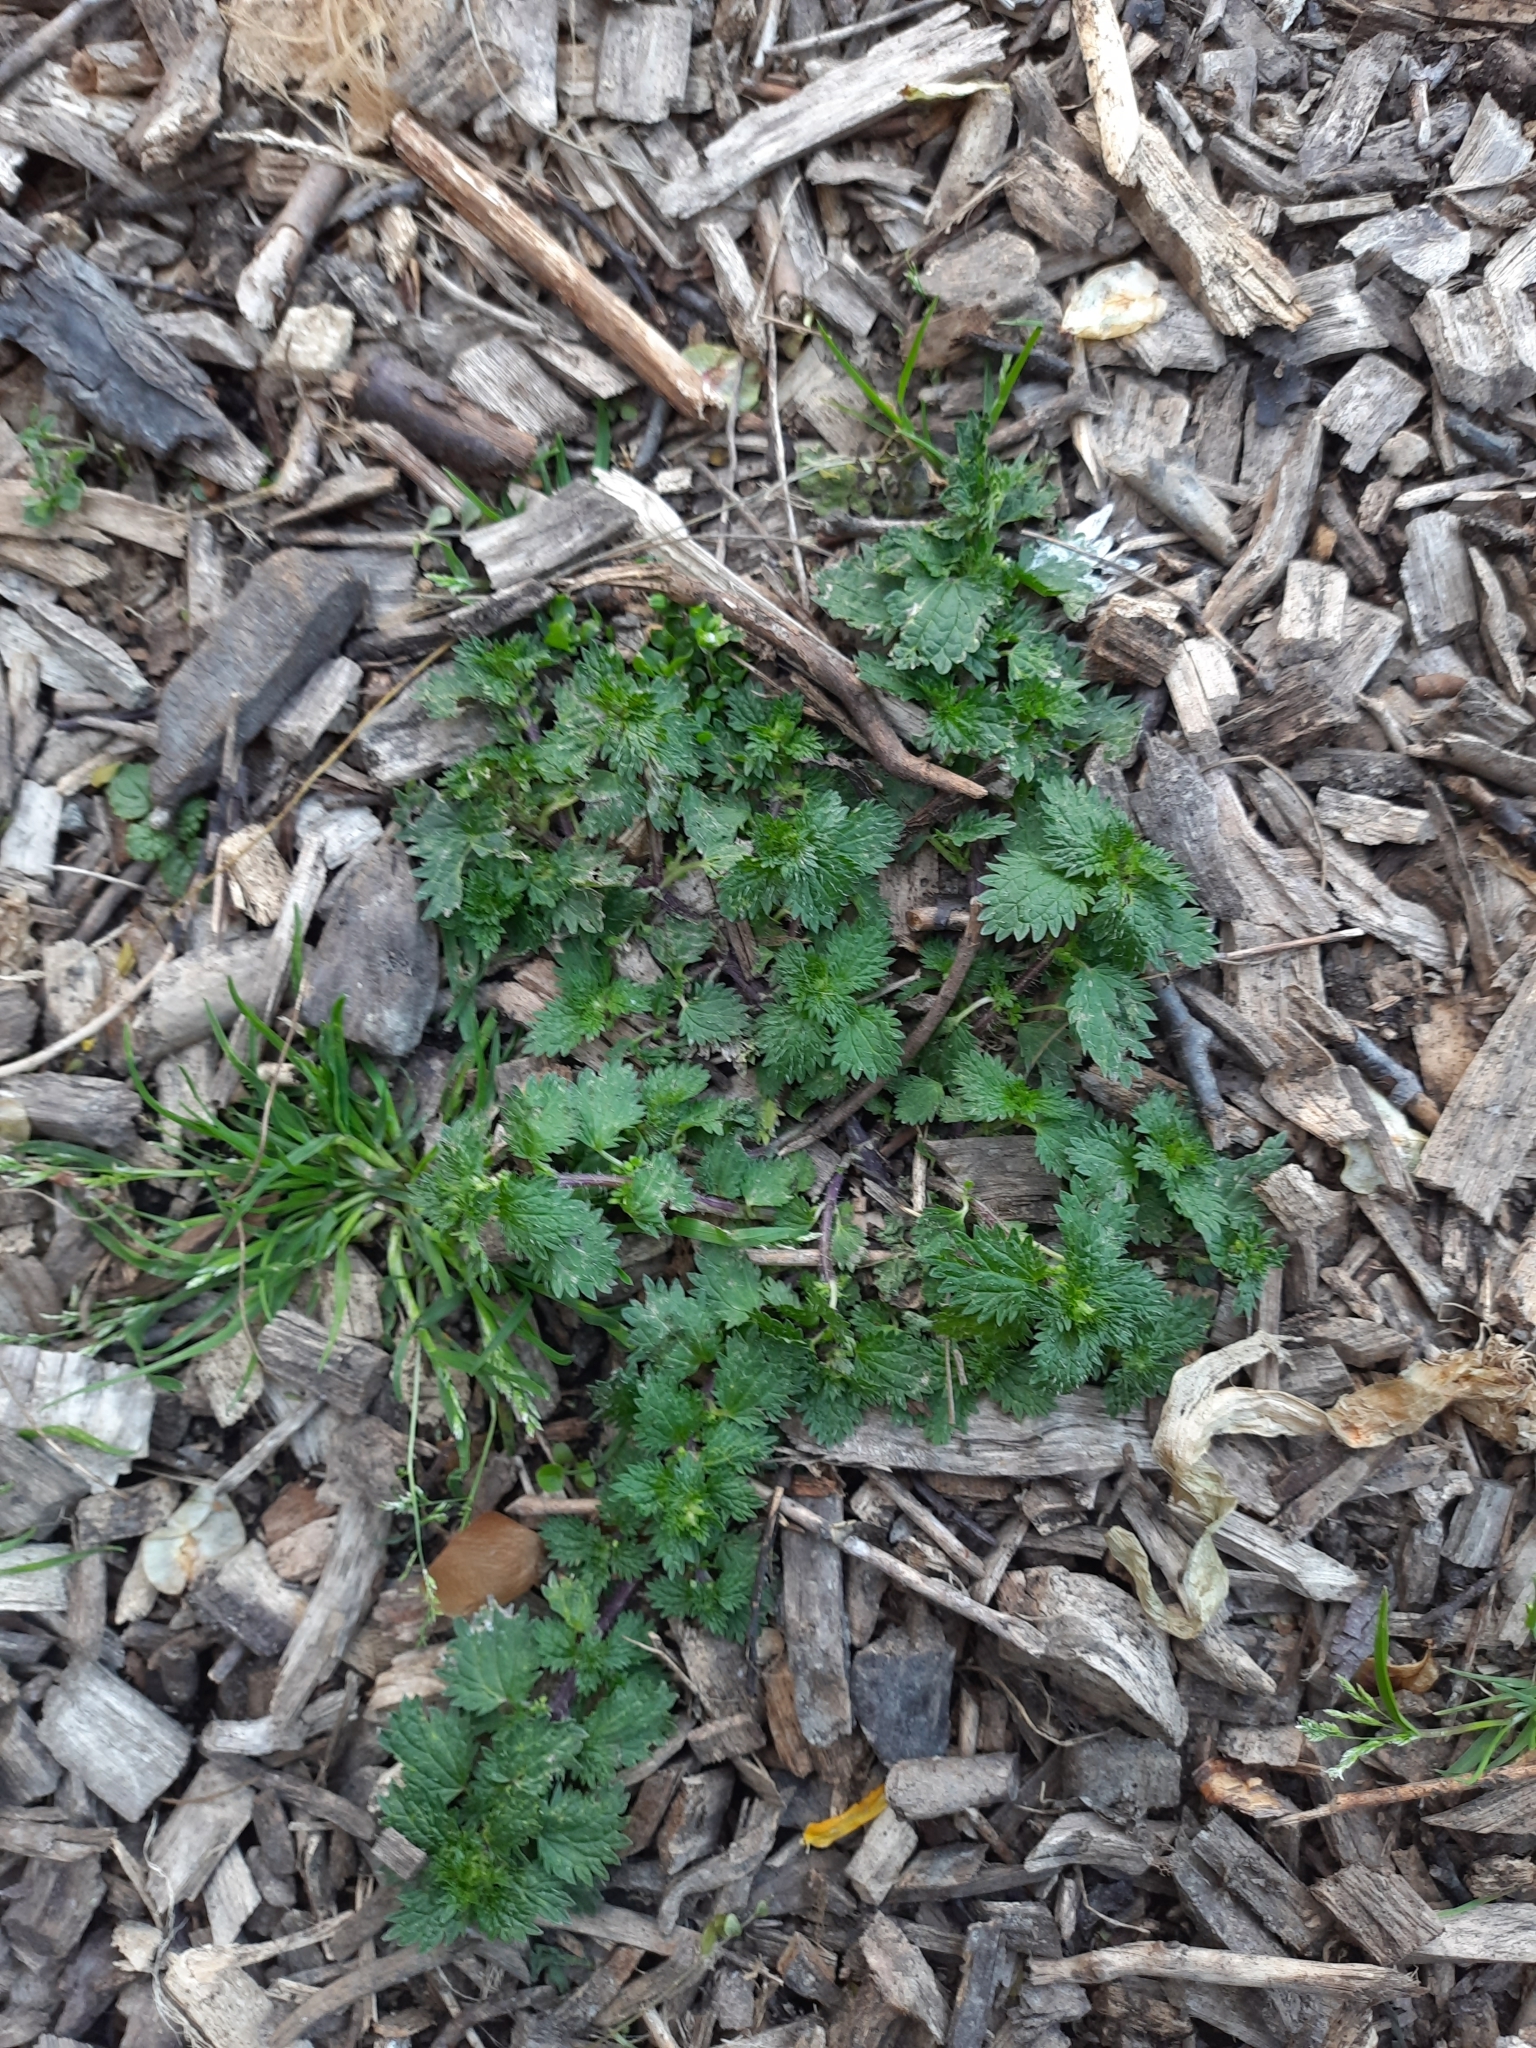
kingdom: Plantae
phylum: Tracheophyta
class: Magnoliopsida
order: Rosales
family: Urticaceae
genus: Urtica
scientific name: Urtica urens
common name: Dwarf nettle
